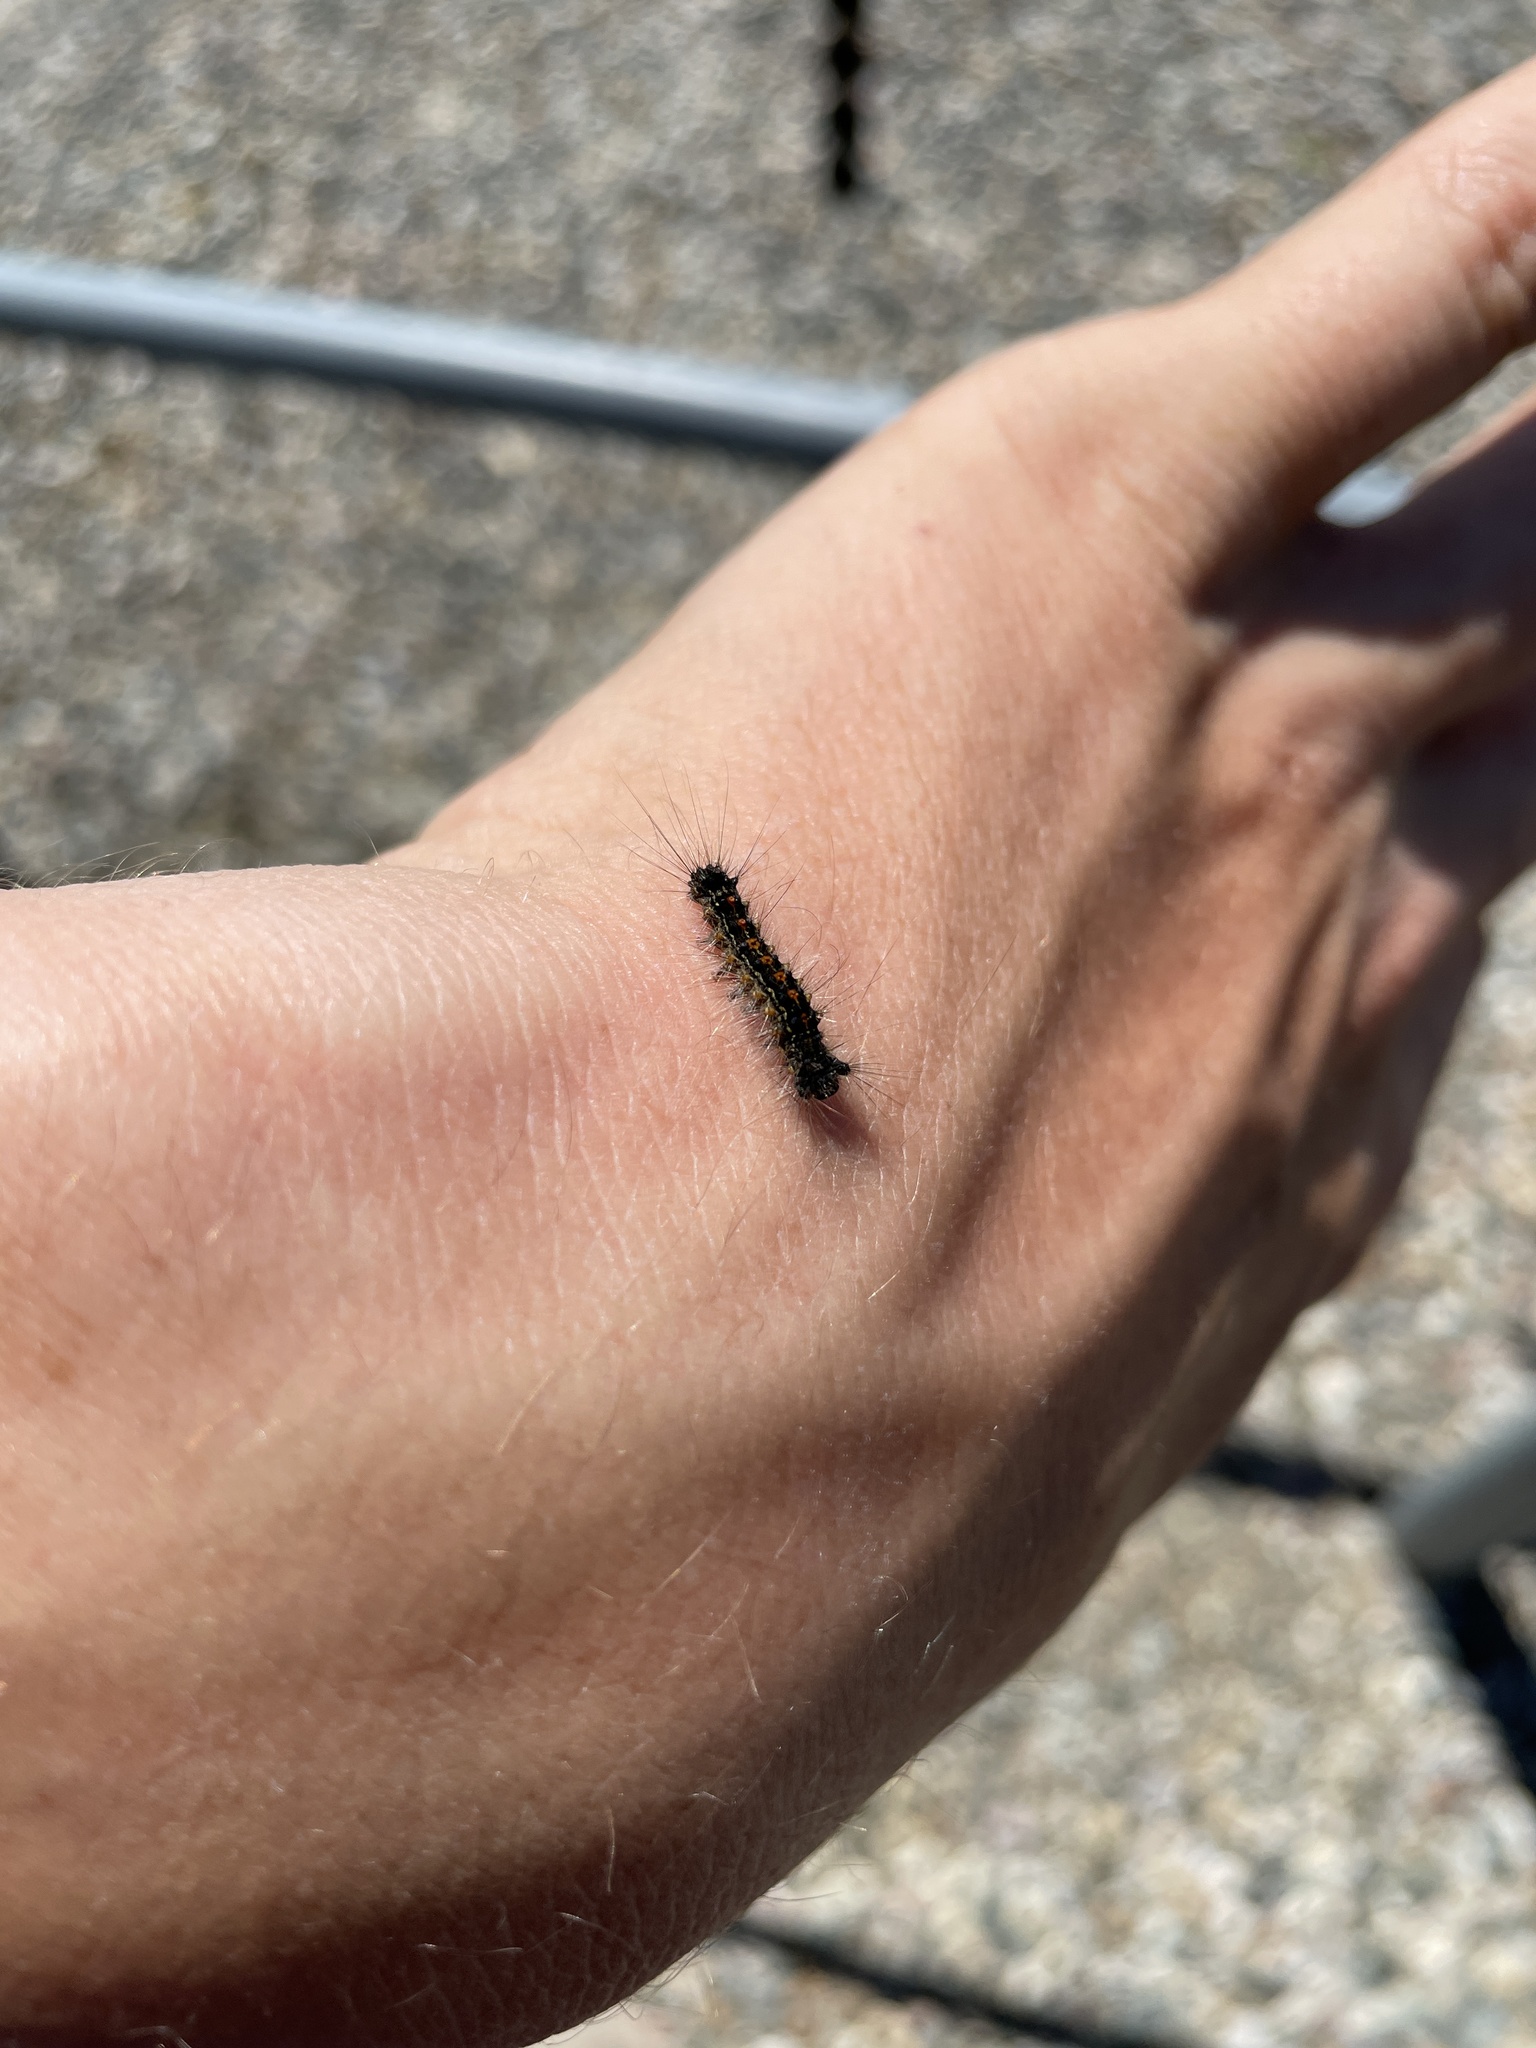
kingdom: Animalia
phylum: Arthropoda
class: Insecta
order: Lepidoptera
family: Erebidae
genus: Lymantria
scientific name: Lymantria dispar
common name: Gypsy moth
